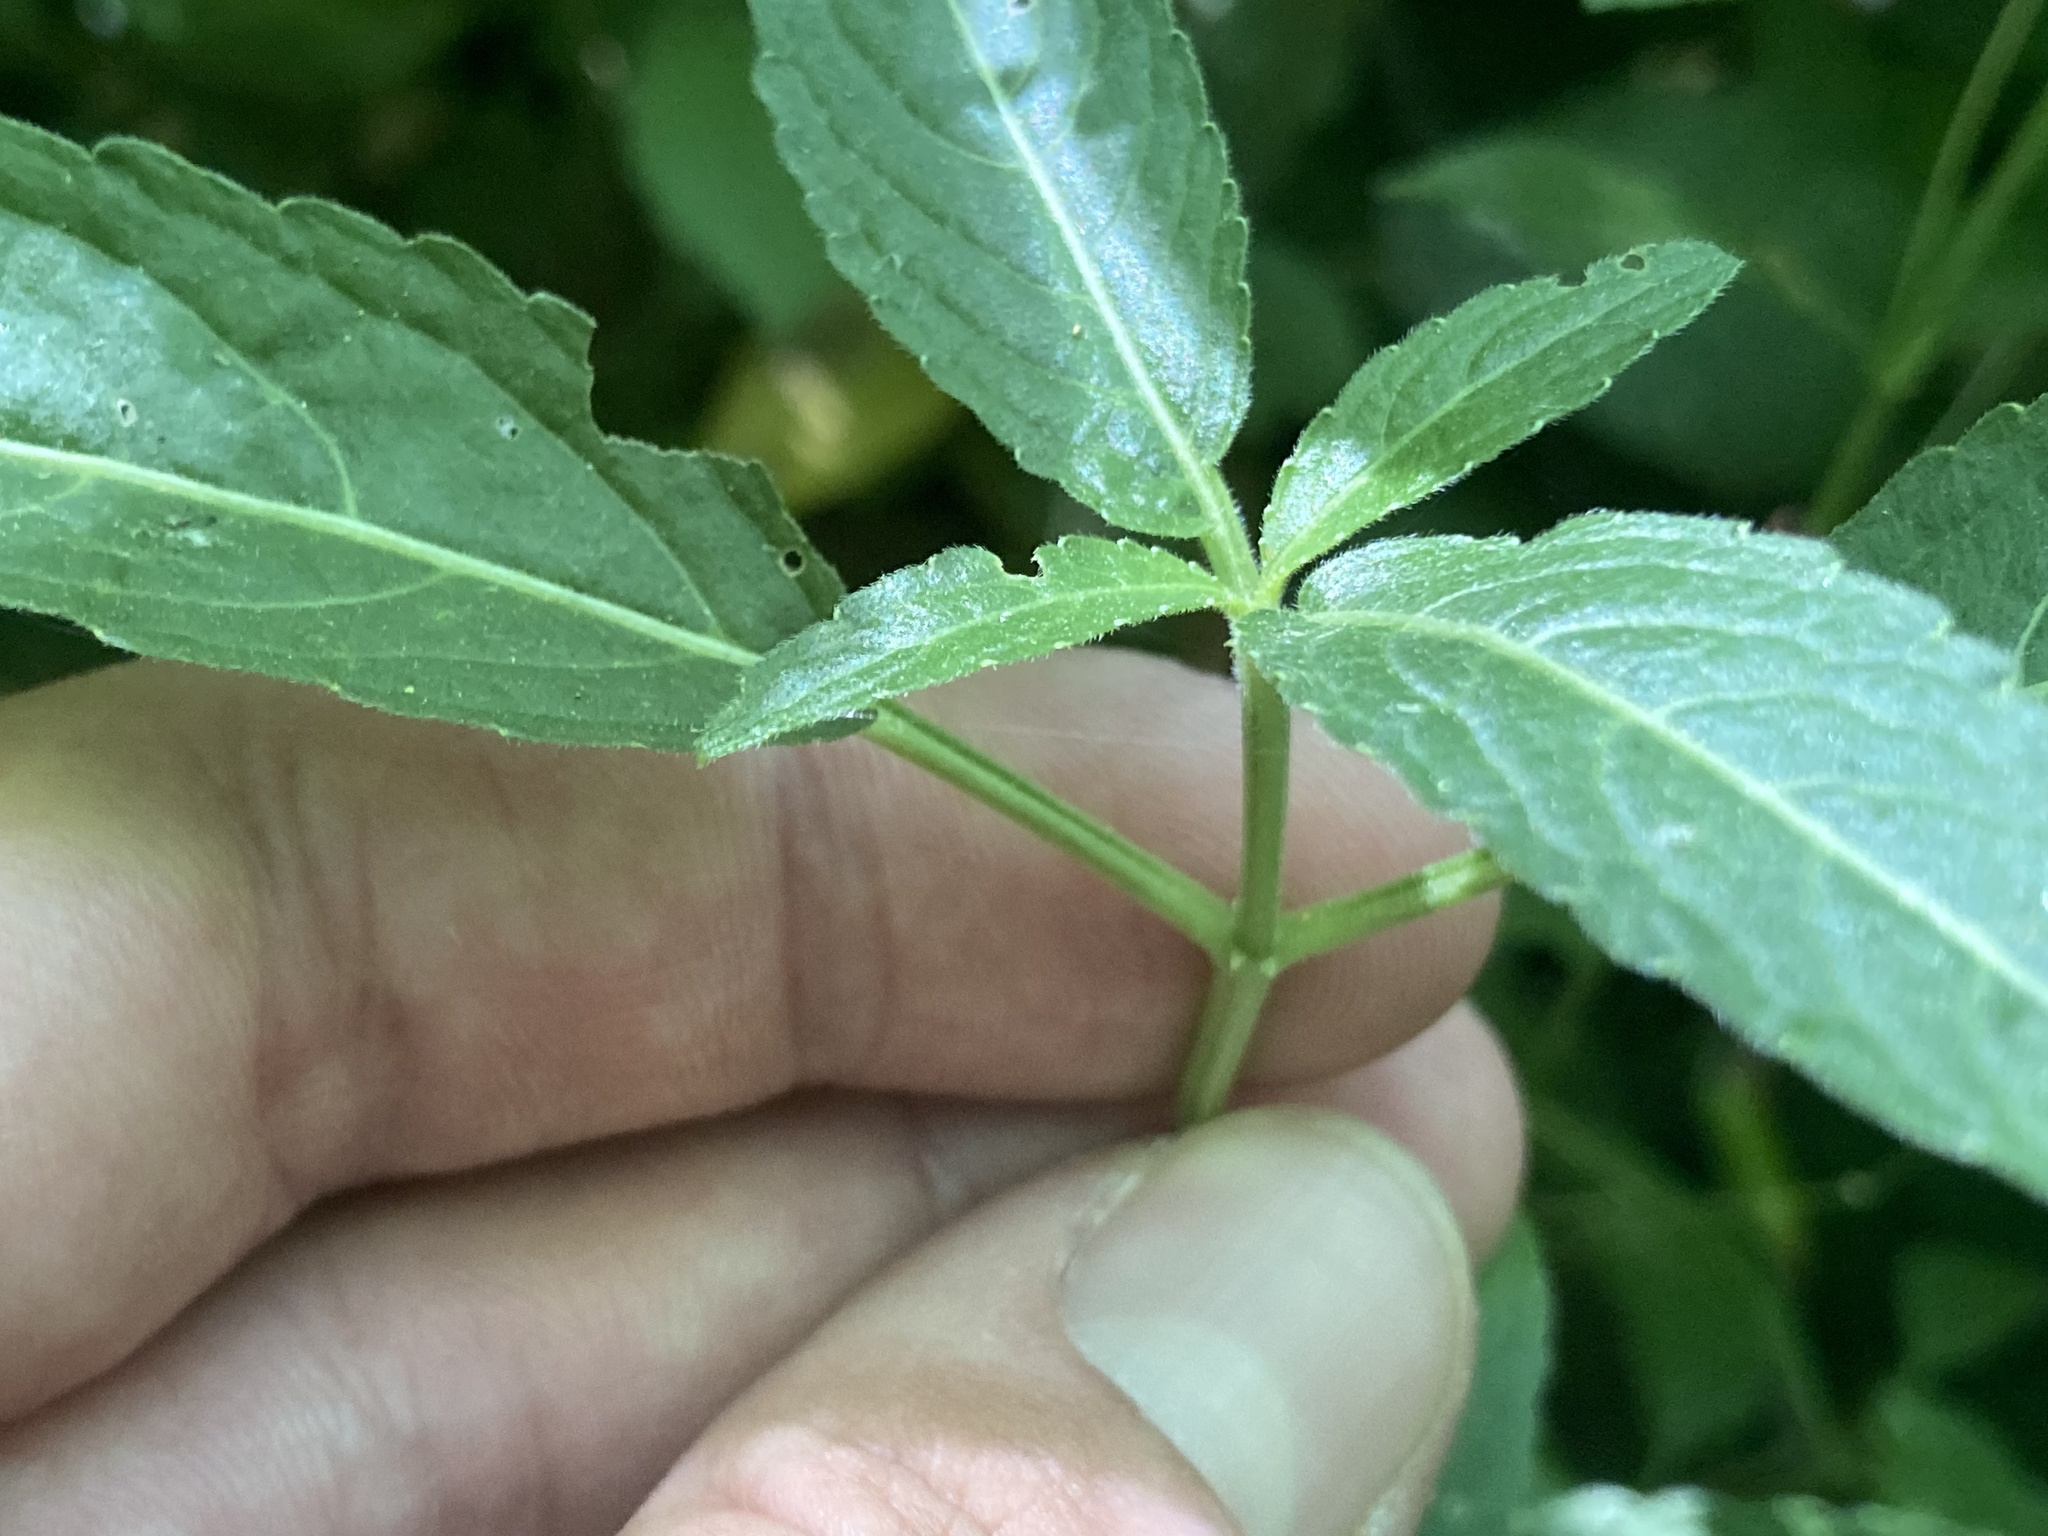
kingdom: Plantae
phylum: Tracheophyta
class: Magnoliopsida
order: Malpighiales
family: Euphorbiaceae
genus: Mercurialis
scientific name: Mercurialis perennis
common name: Dog mercury
